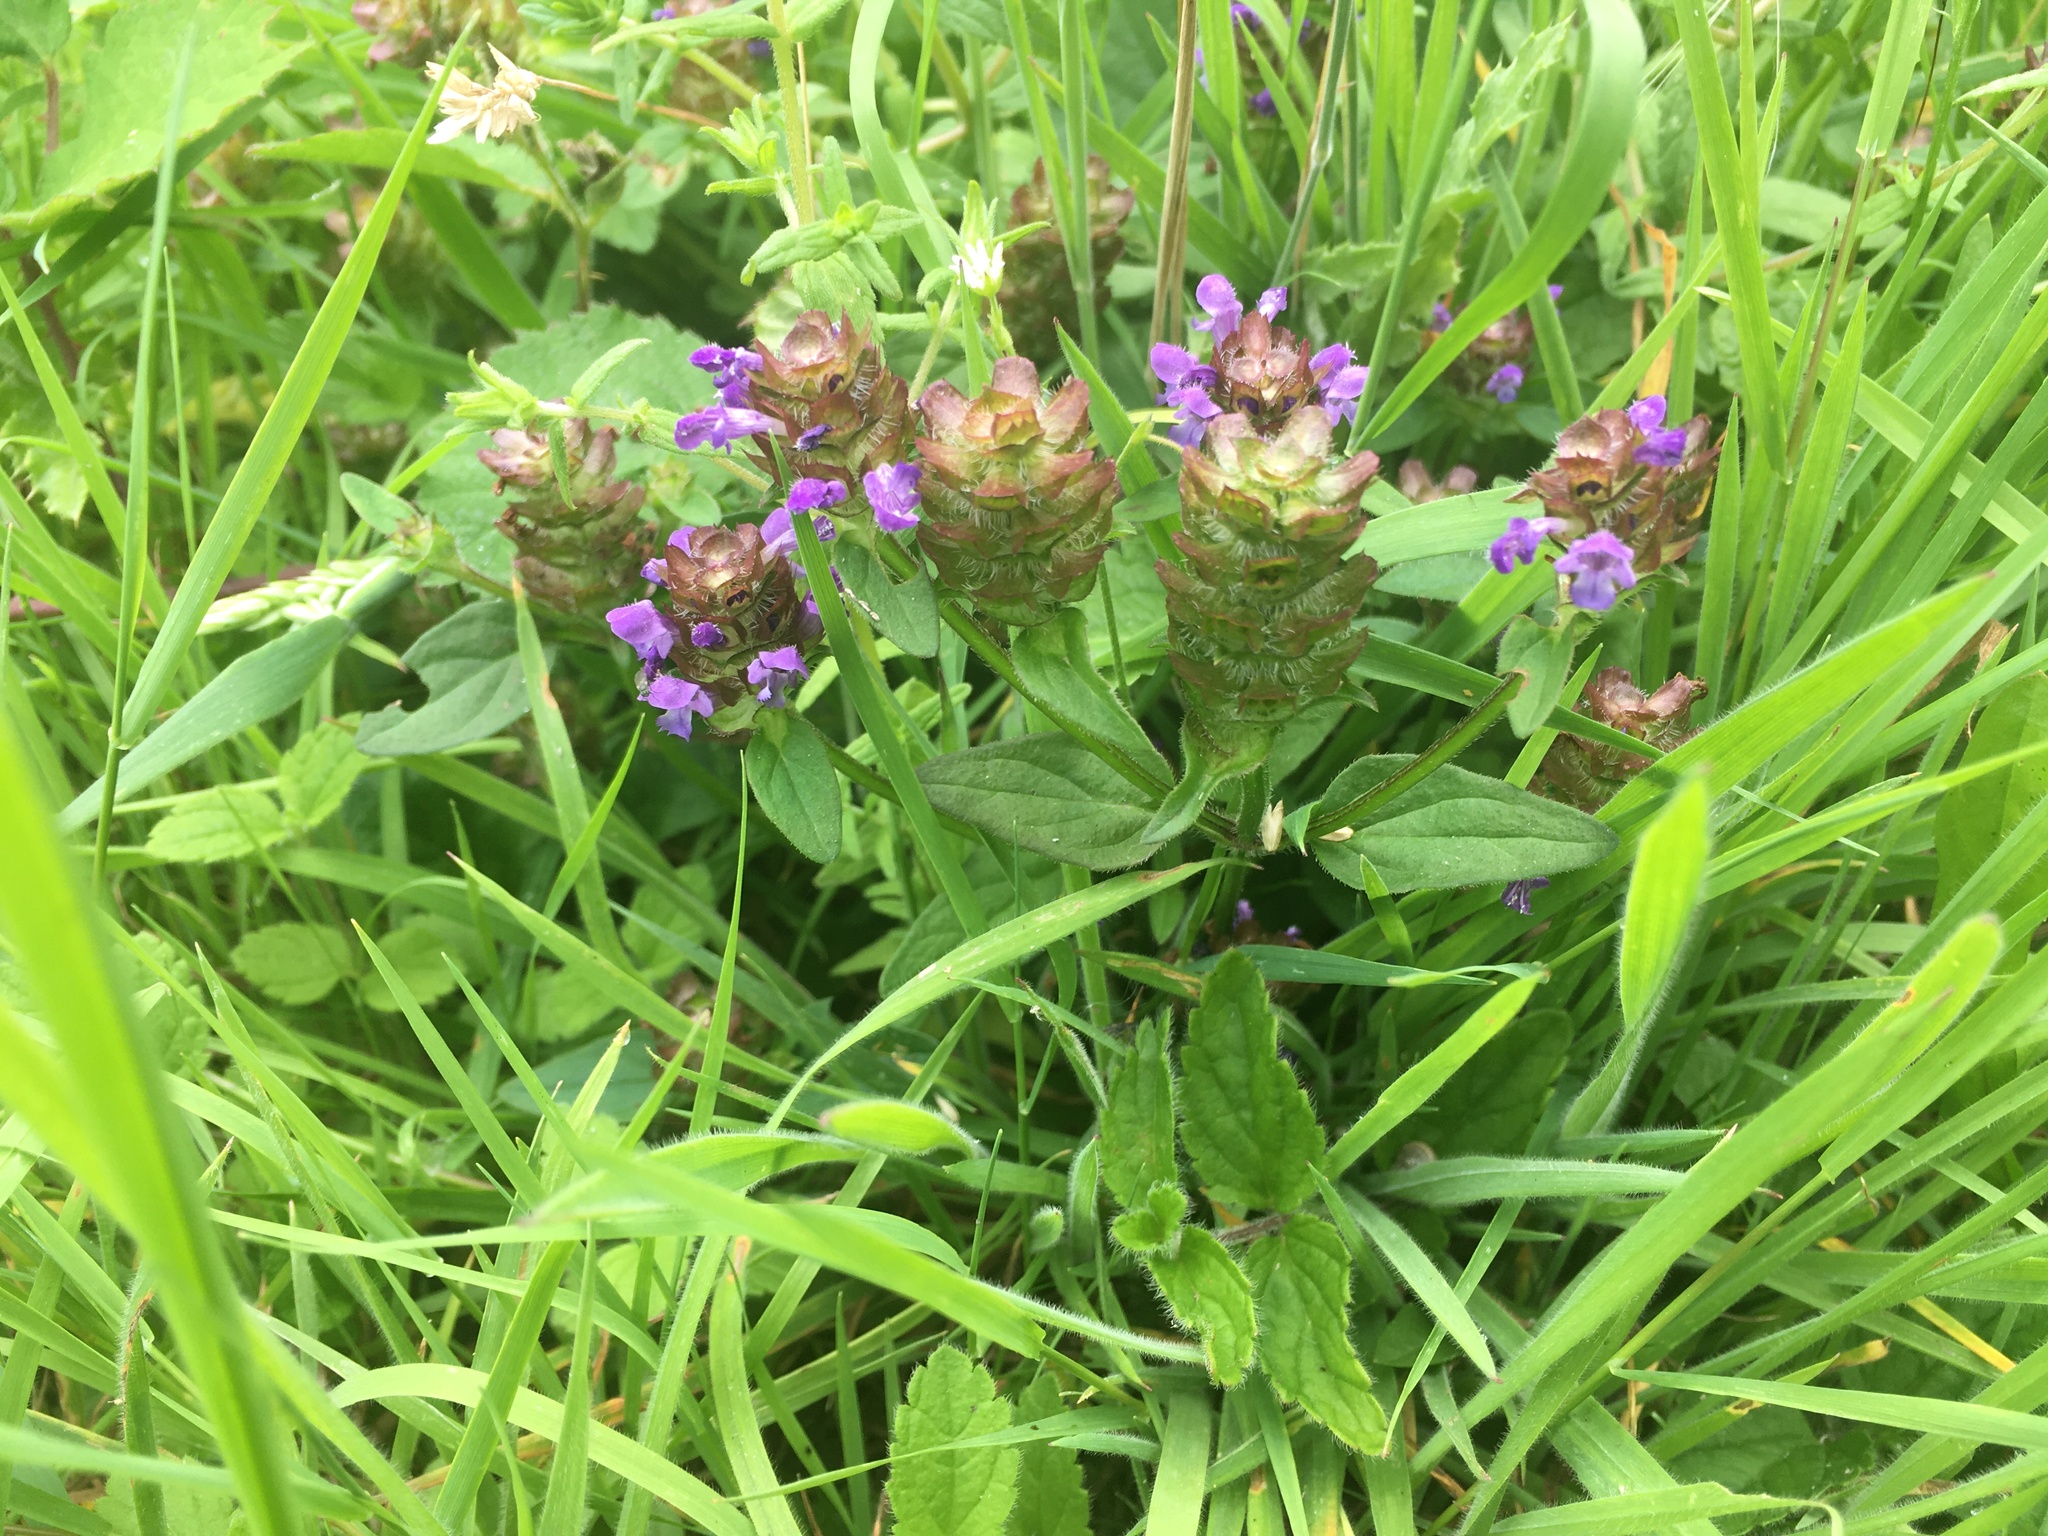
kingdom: Plantae
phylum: Tracheophyta
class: Magnoliopsida
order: Lamiales
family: Lamiaceae
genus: Prunella
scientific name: Prunella vulgaris
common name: Heal-all
